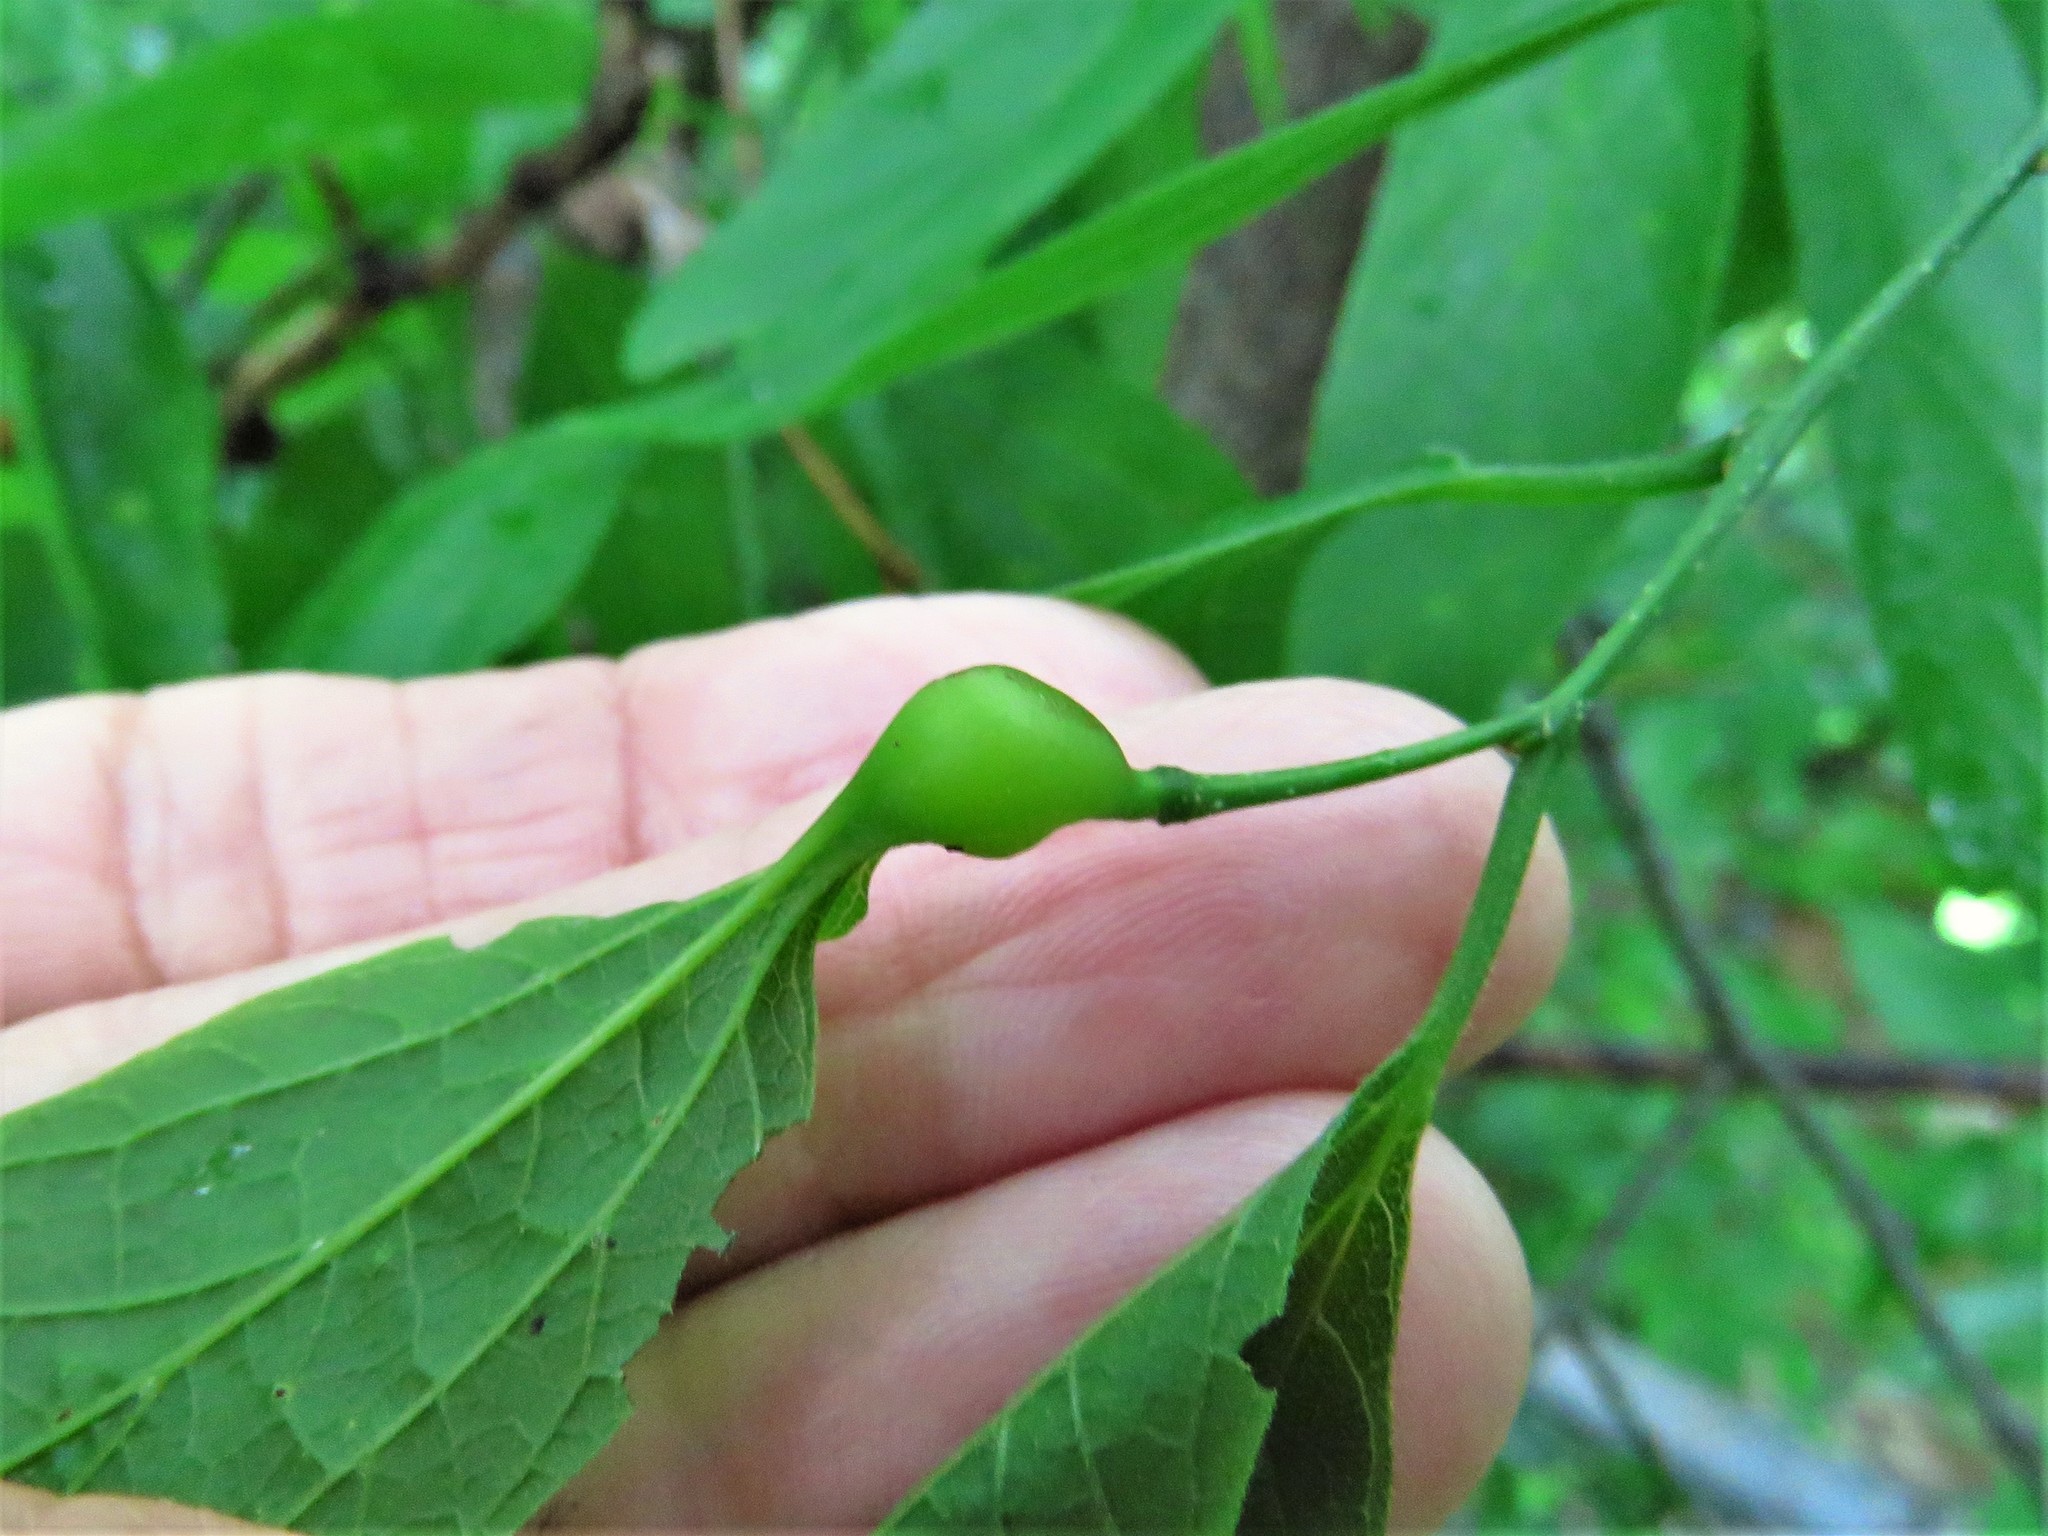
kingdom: Animalia
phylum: Arthropoda
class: Insecta
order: Hemiptera
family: Aphalaridae
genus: Pachypsylla
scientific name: Pachypsylla venusta
